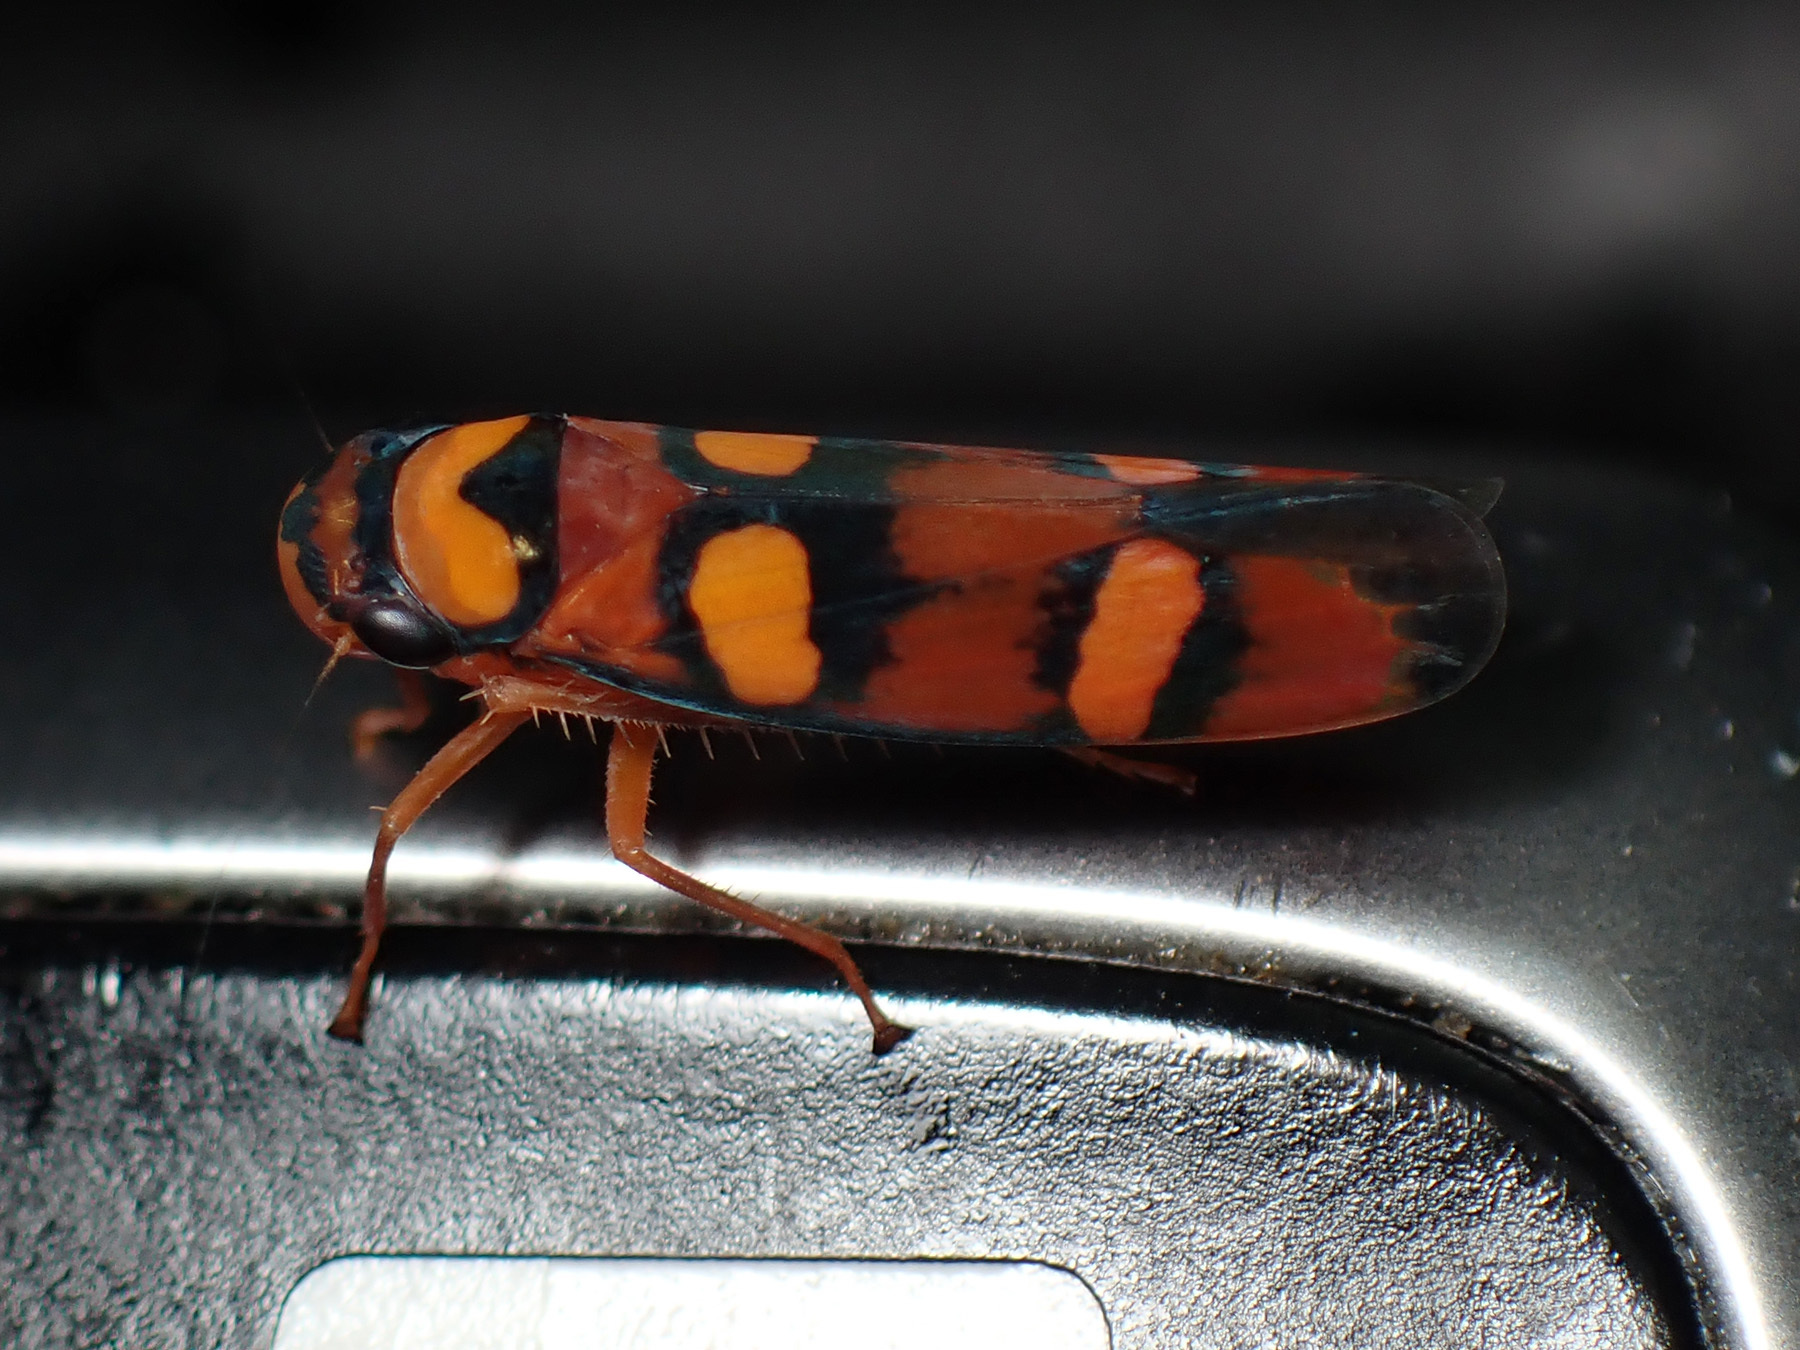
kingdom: Animalia
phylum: Arthropoda
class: Insecta
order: Hemiptera
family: Cicadellidae
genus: Pawiloma
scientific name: Pawiloma jucunda
